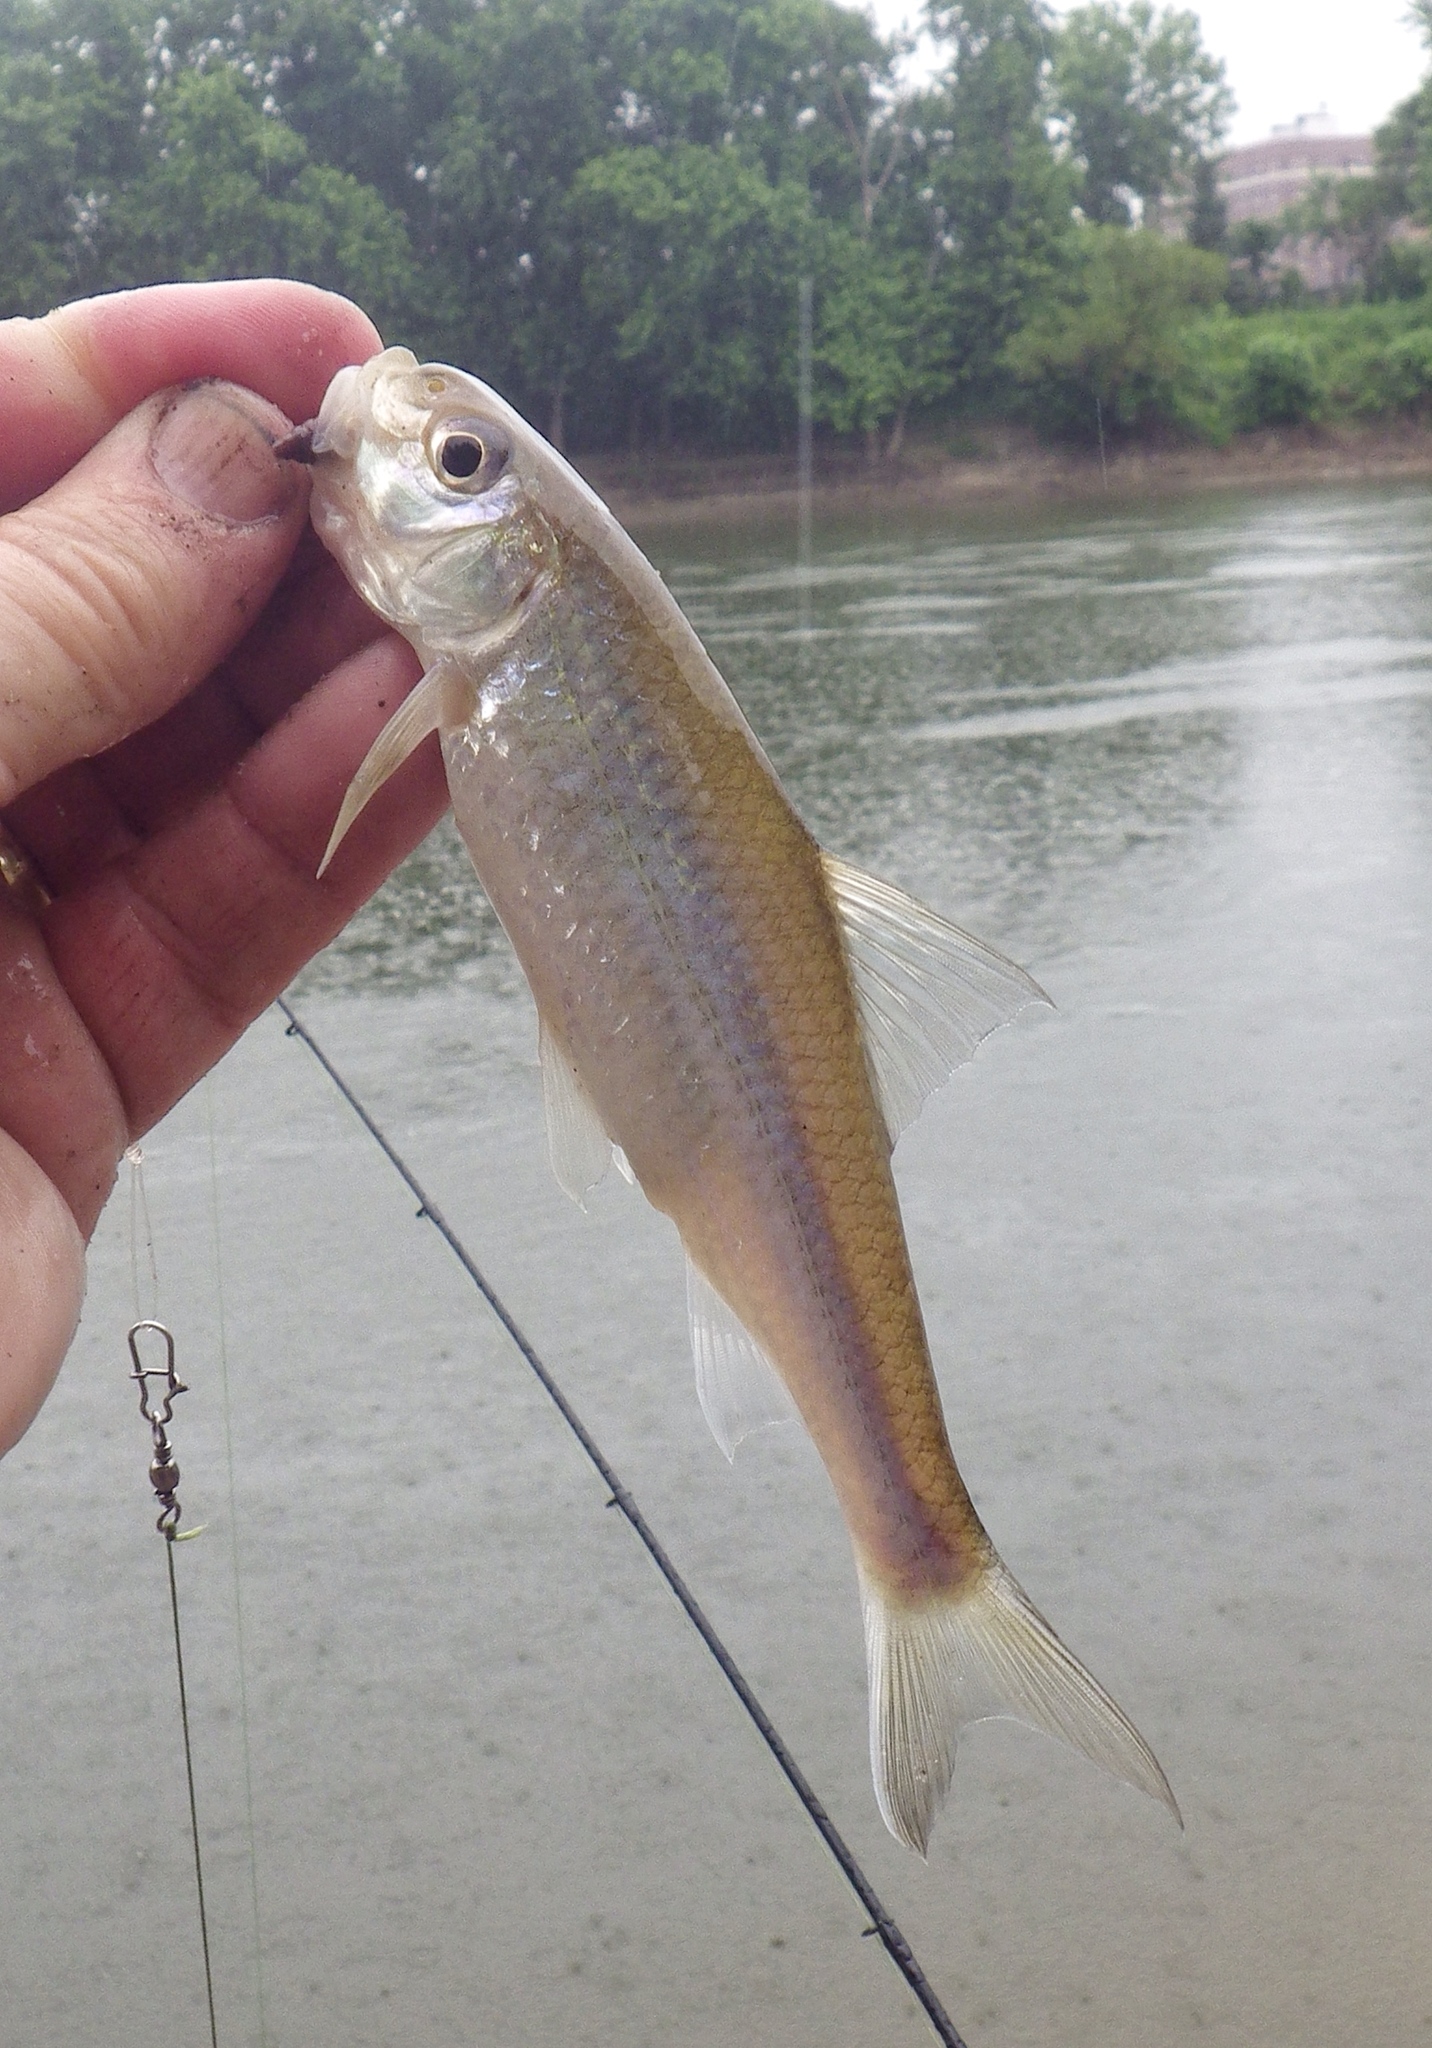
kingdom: Animalia
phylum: Chordata
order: Cypriniformes
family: Cyprinidae
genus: Macrhybopsis
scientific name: Macrhybopsis storeriana
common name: Silver chub
